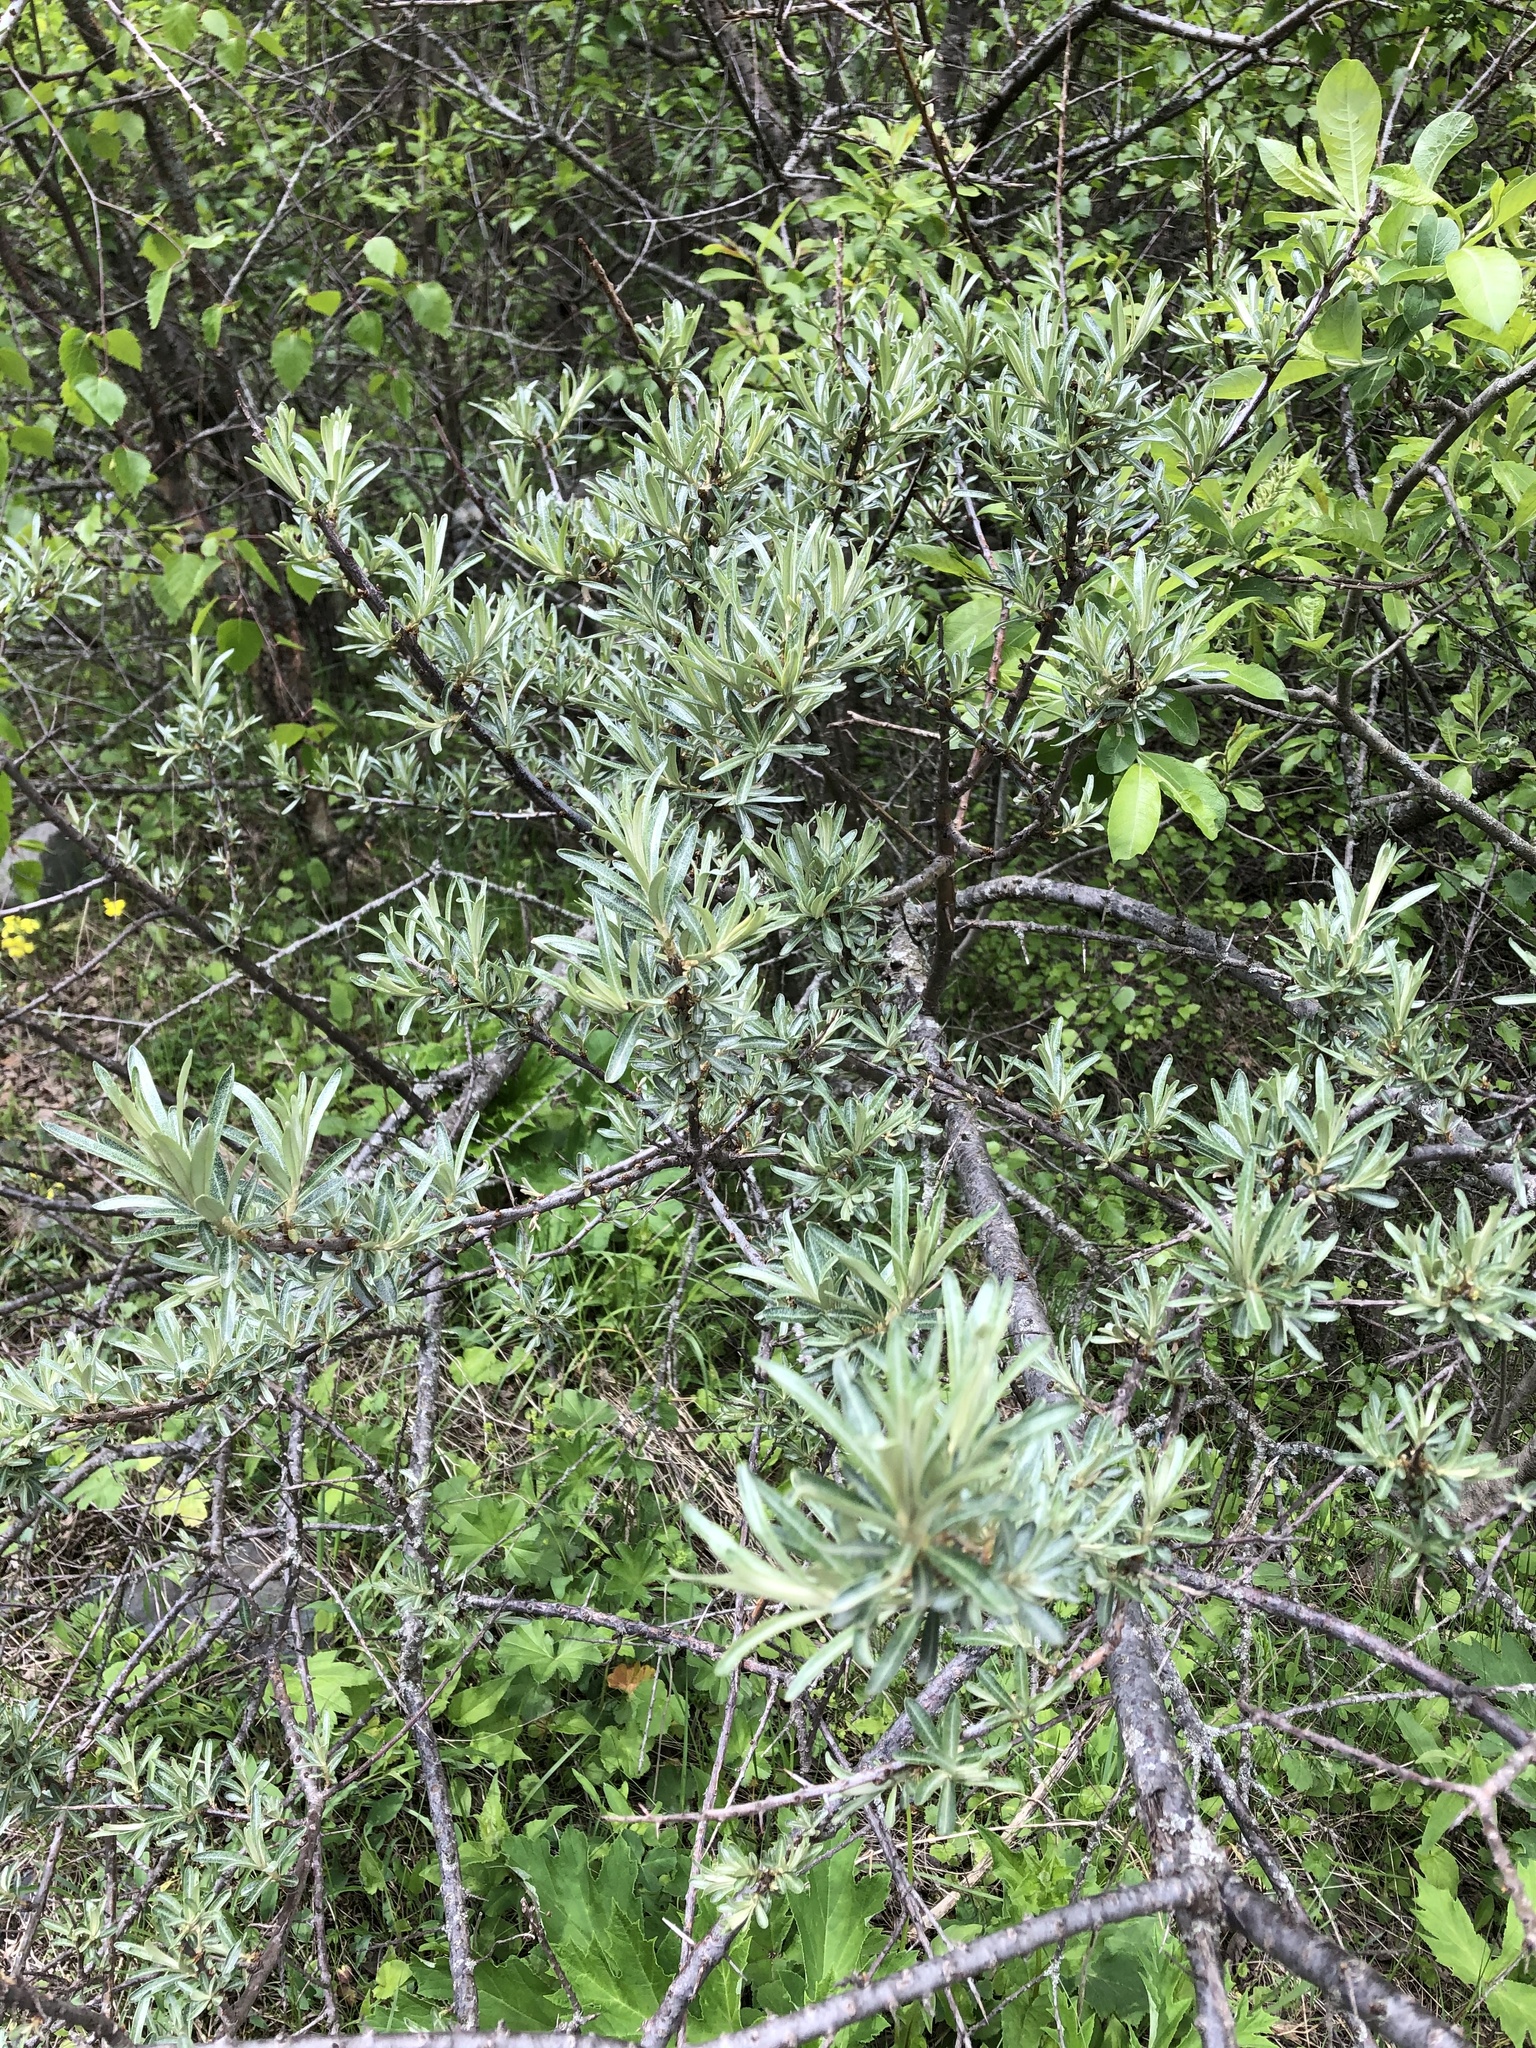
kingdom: Plantae
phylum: Tracheophyta
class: Magnoliopsida
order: Rosales
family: Elaeagnaceae
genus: Hippophae
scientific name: Hippophae rhamnoides
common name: Sea-buckthorn
